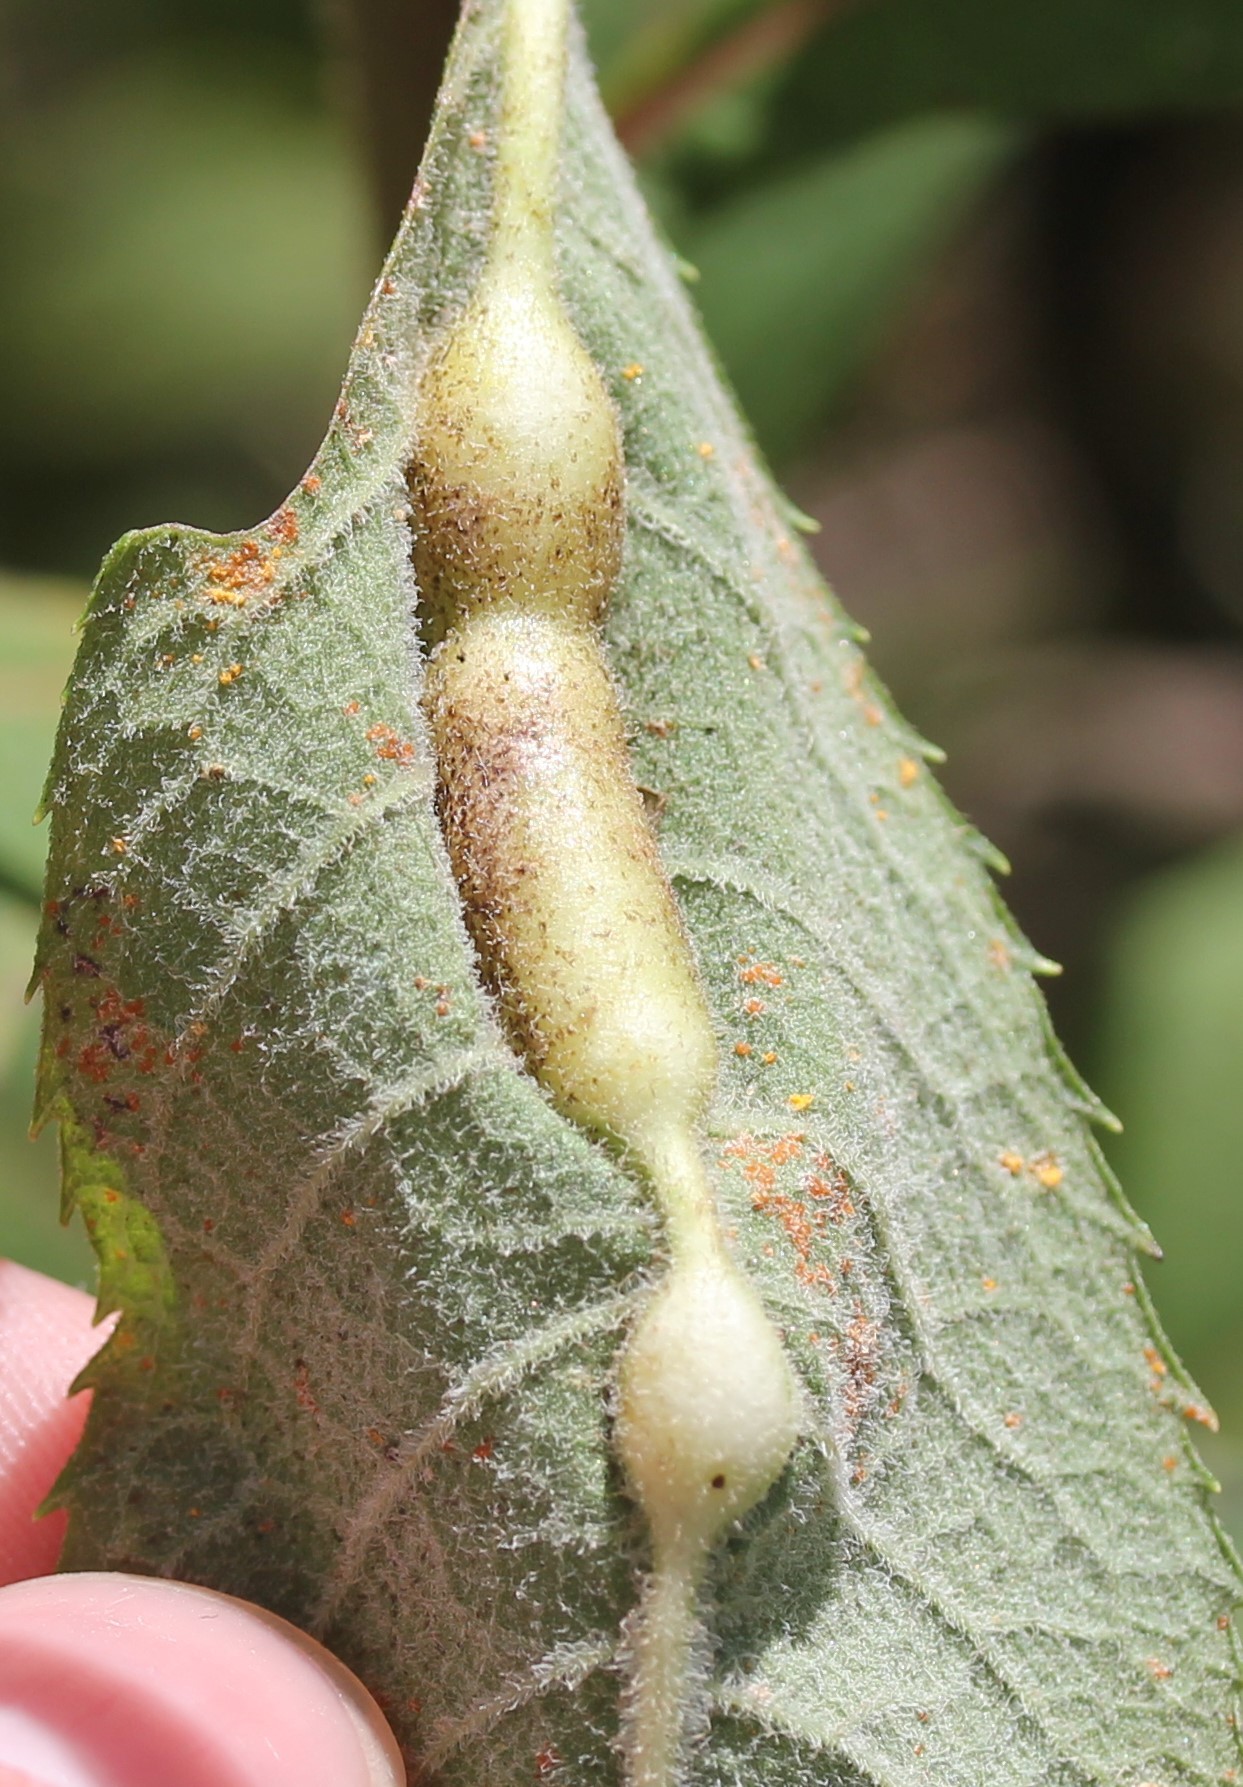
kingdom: Animalia
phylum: Arthropoda
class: Insecta
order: Diptera
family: Cecidomyiidae
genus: Neolasioptera
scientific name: Neolasioptera vernoniae
